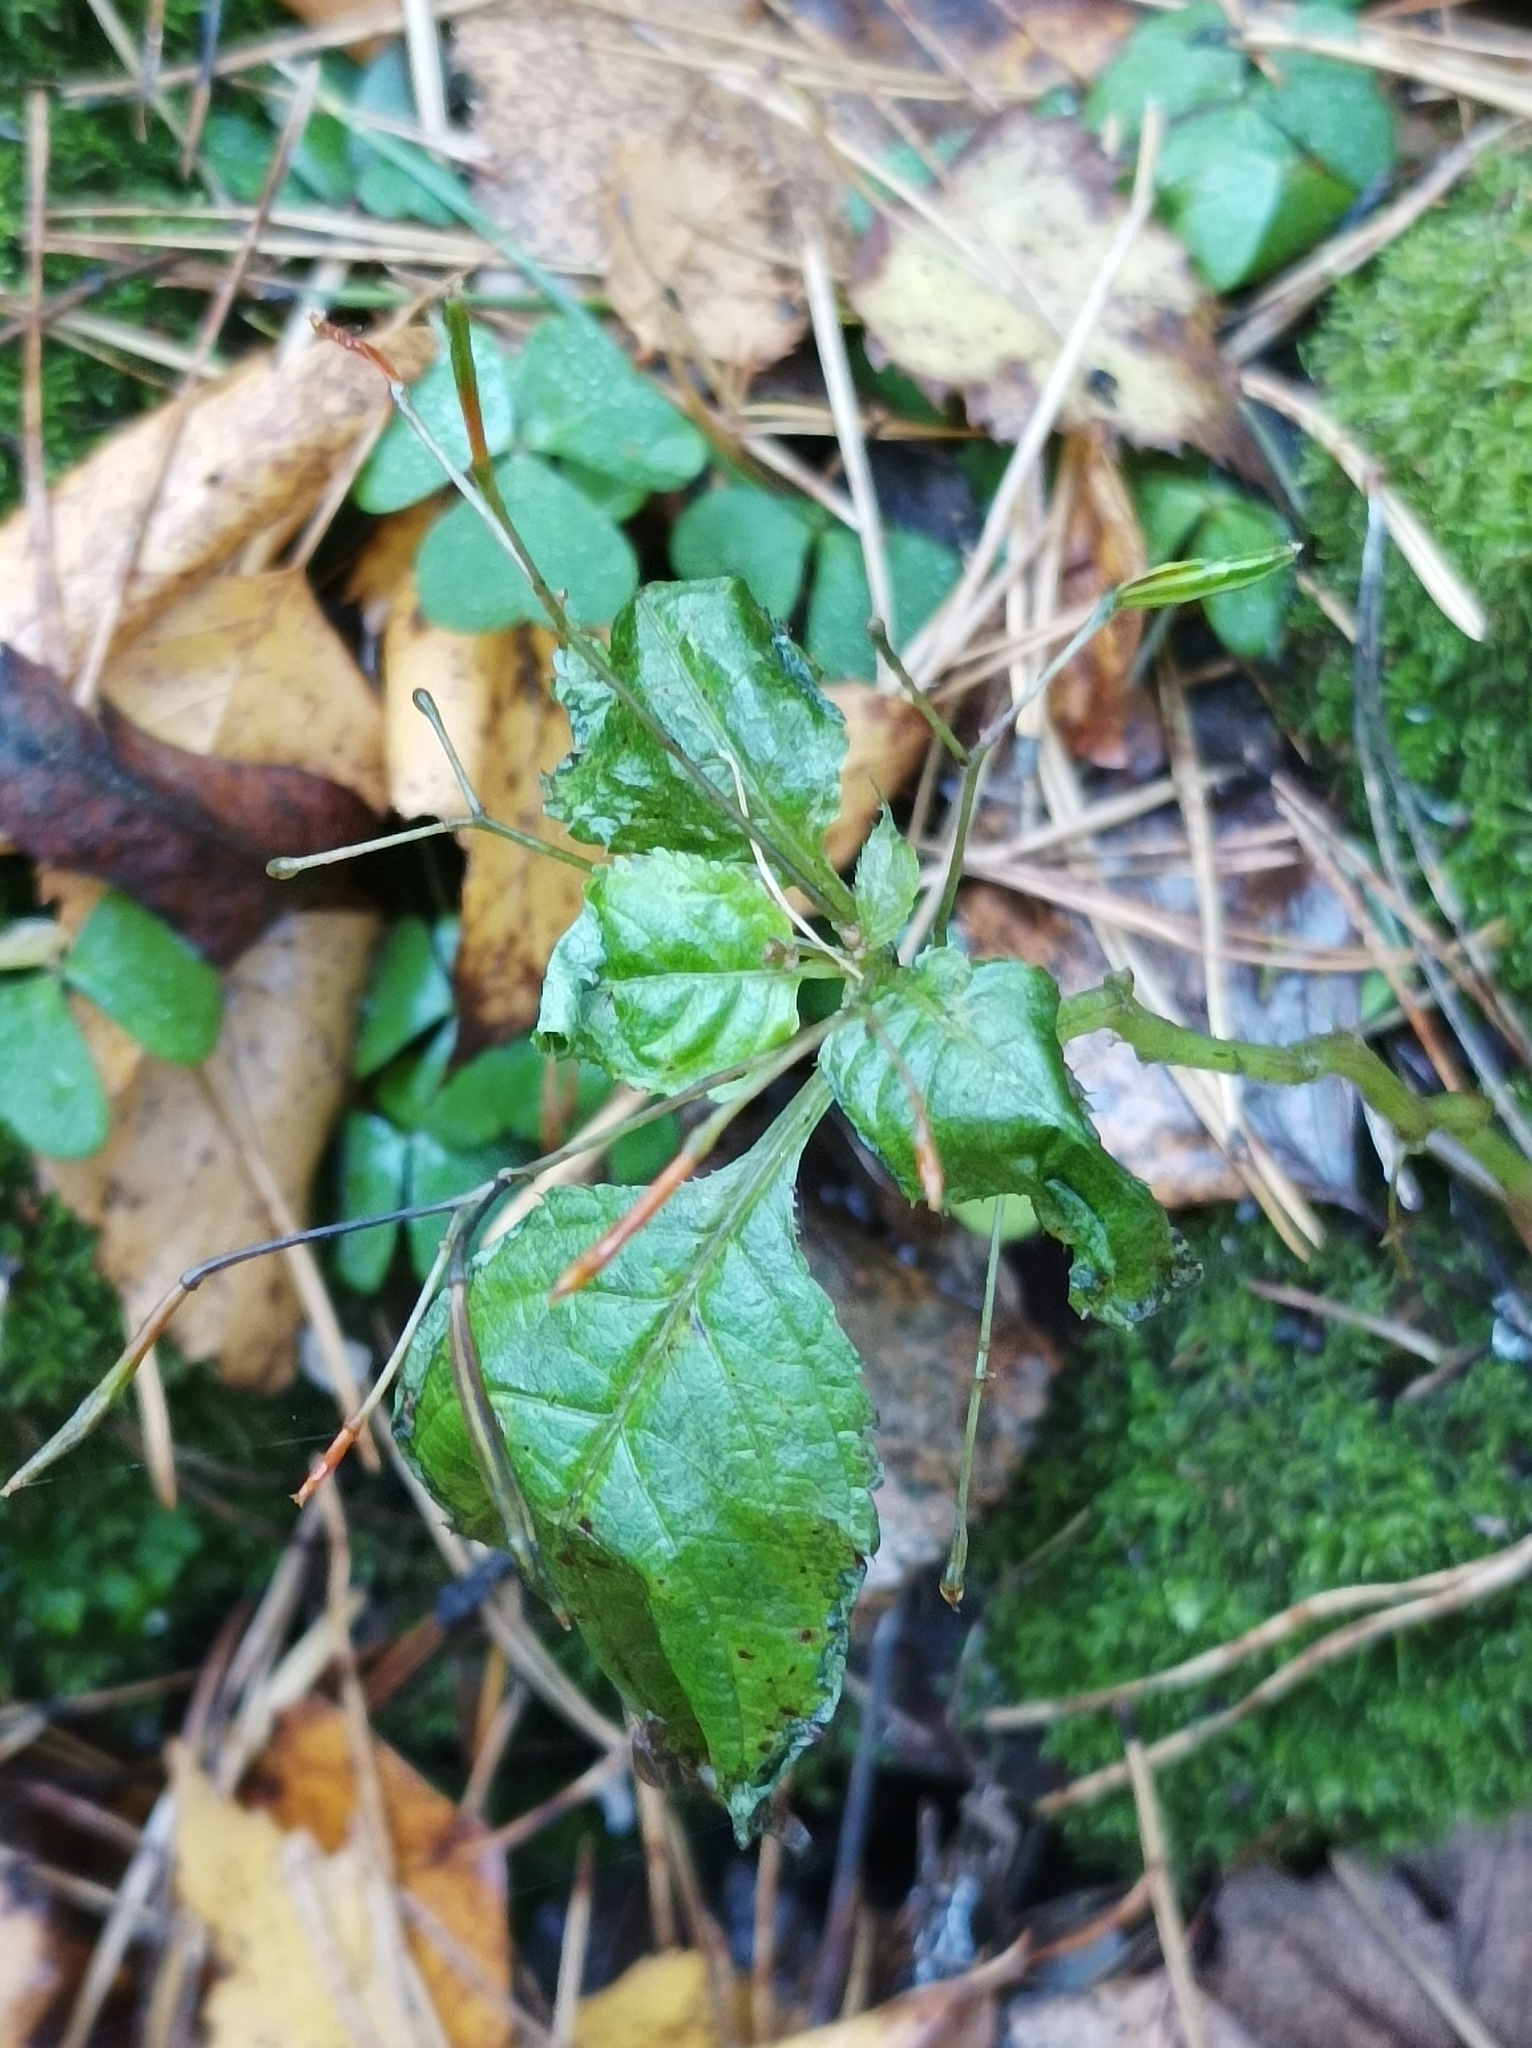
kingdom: Plantae
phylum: Tracheophyta
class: Magnoliopsida
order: Ericales
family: Balsaminaceae
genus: Impatiens
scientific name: Impatiens parviflora
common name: Small balsam
